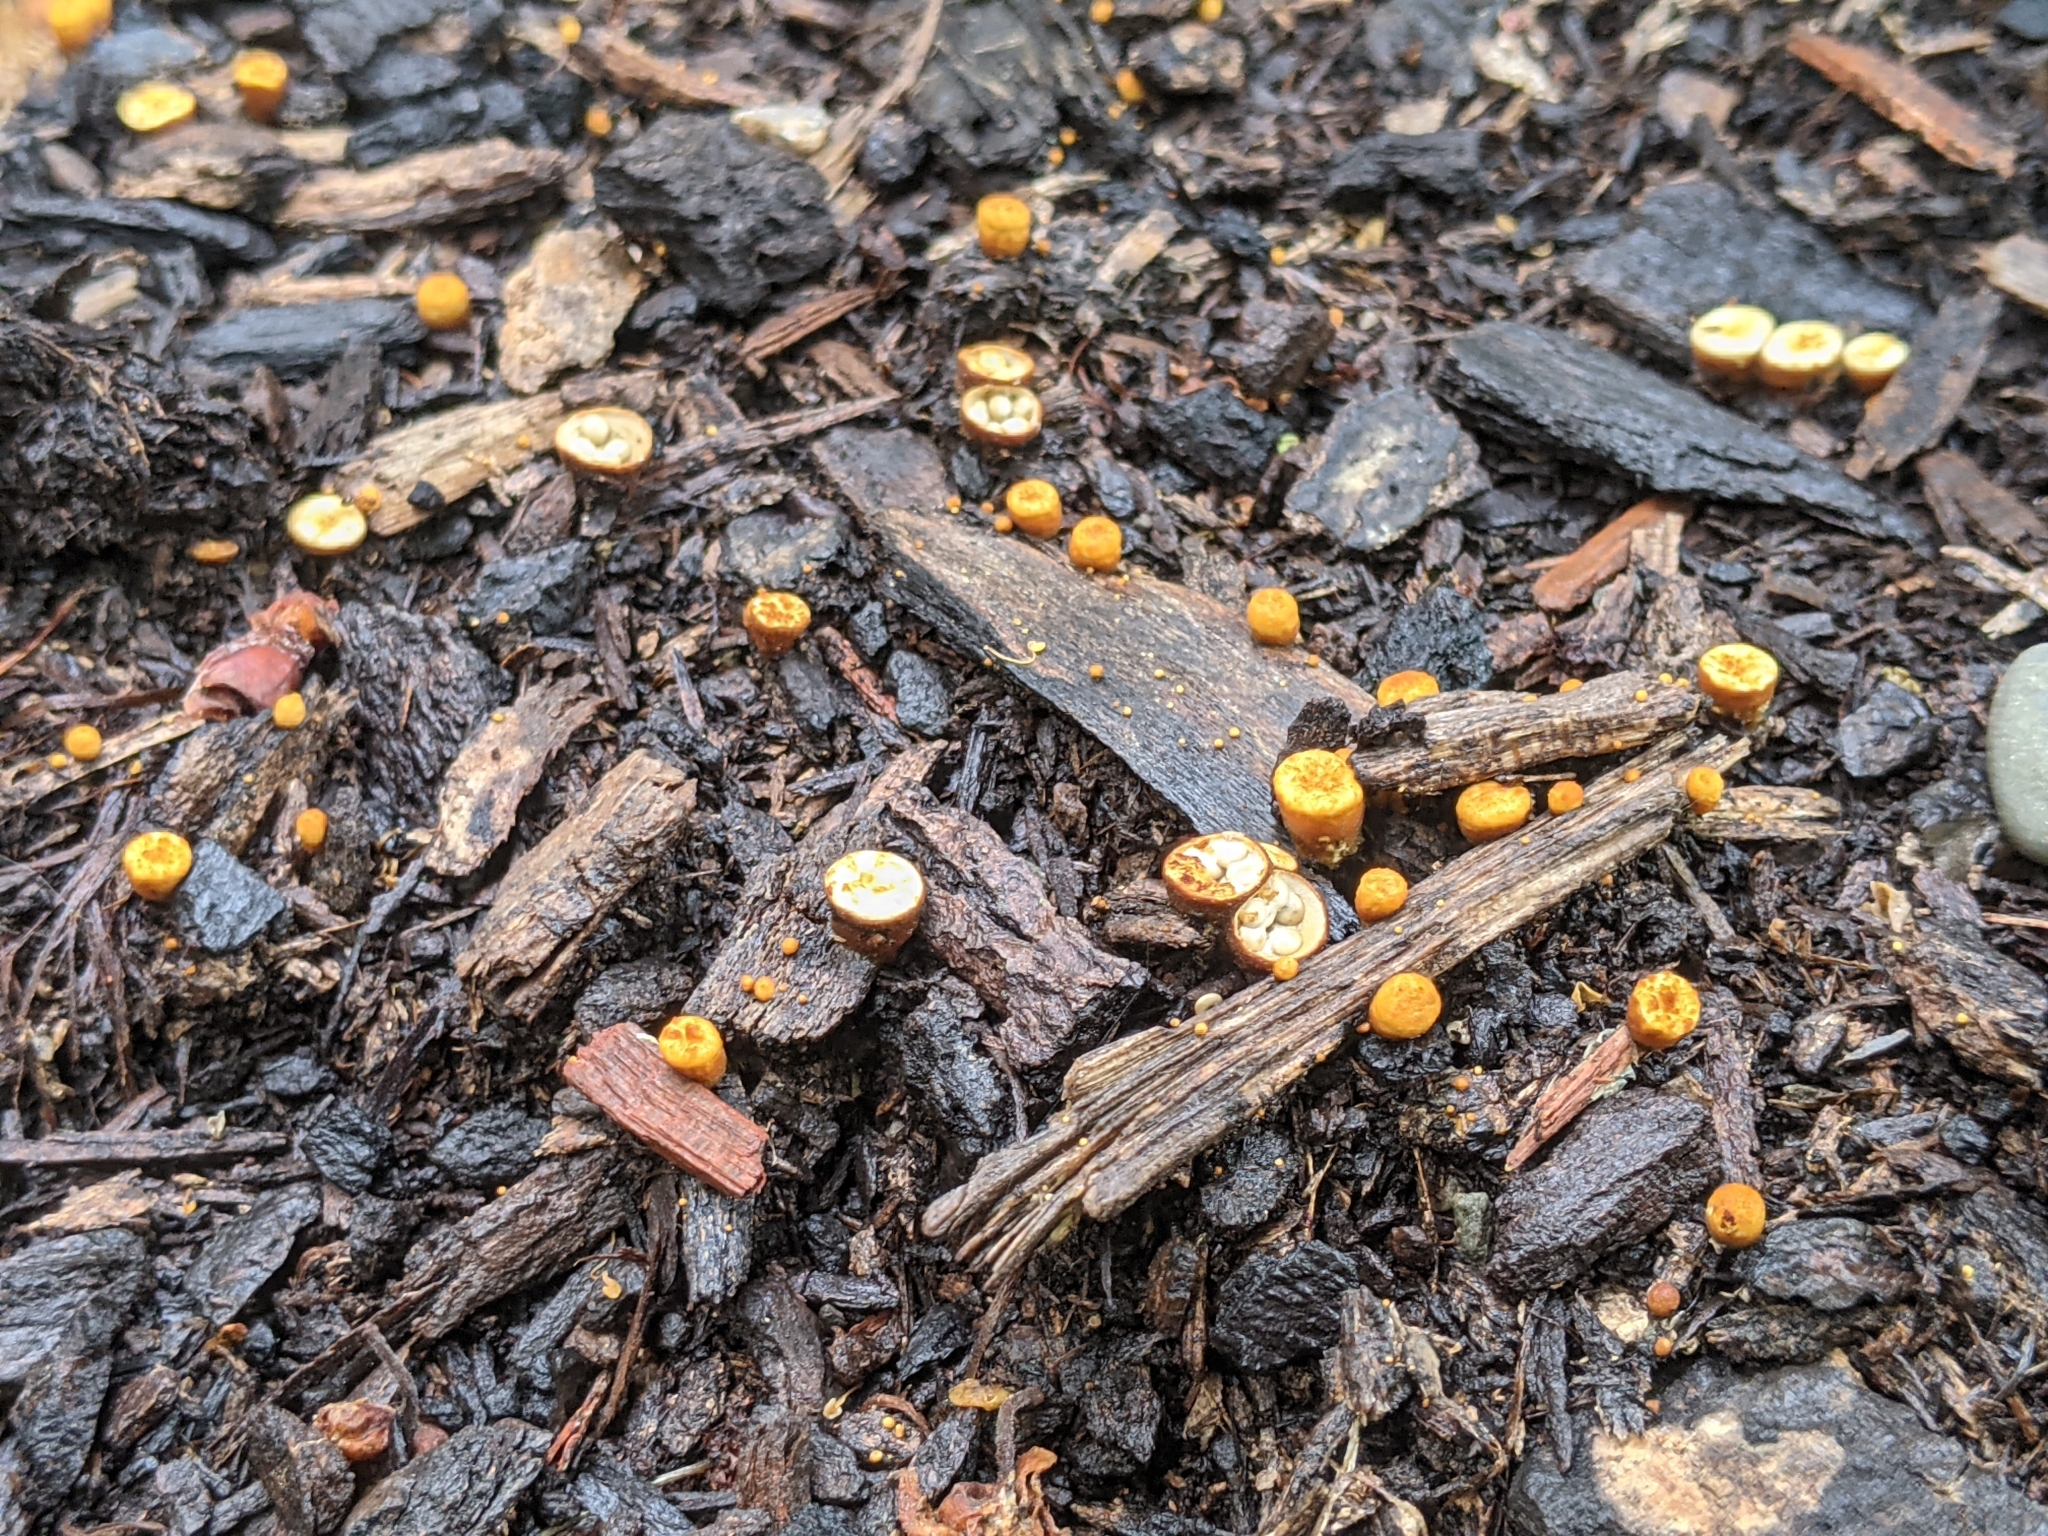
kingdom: Fungi
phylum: Basidiomycota
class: Agaricomycetes
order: Agaricales
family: Nidulariaceae
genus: Crucibulum
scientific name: Crucibulum laeve
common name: Common bird's nest
